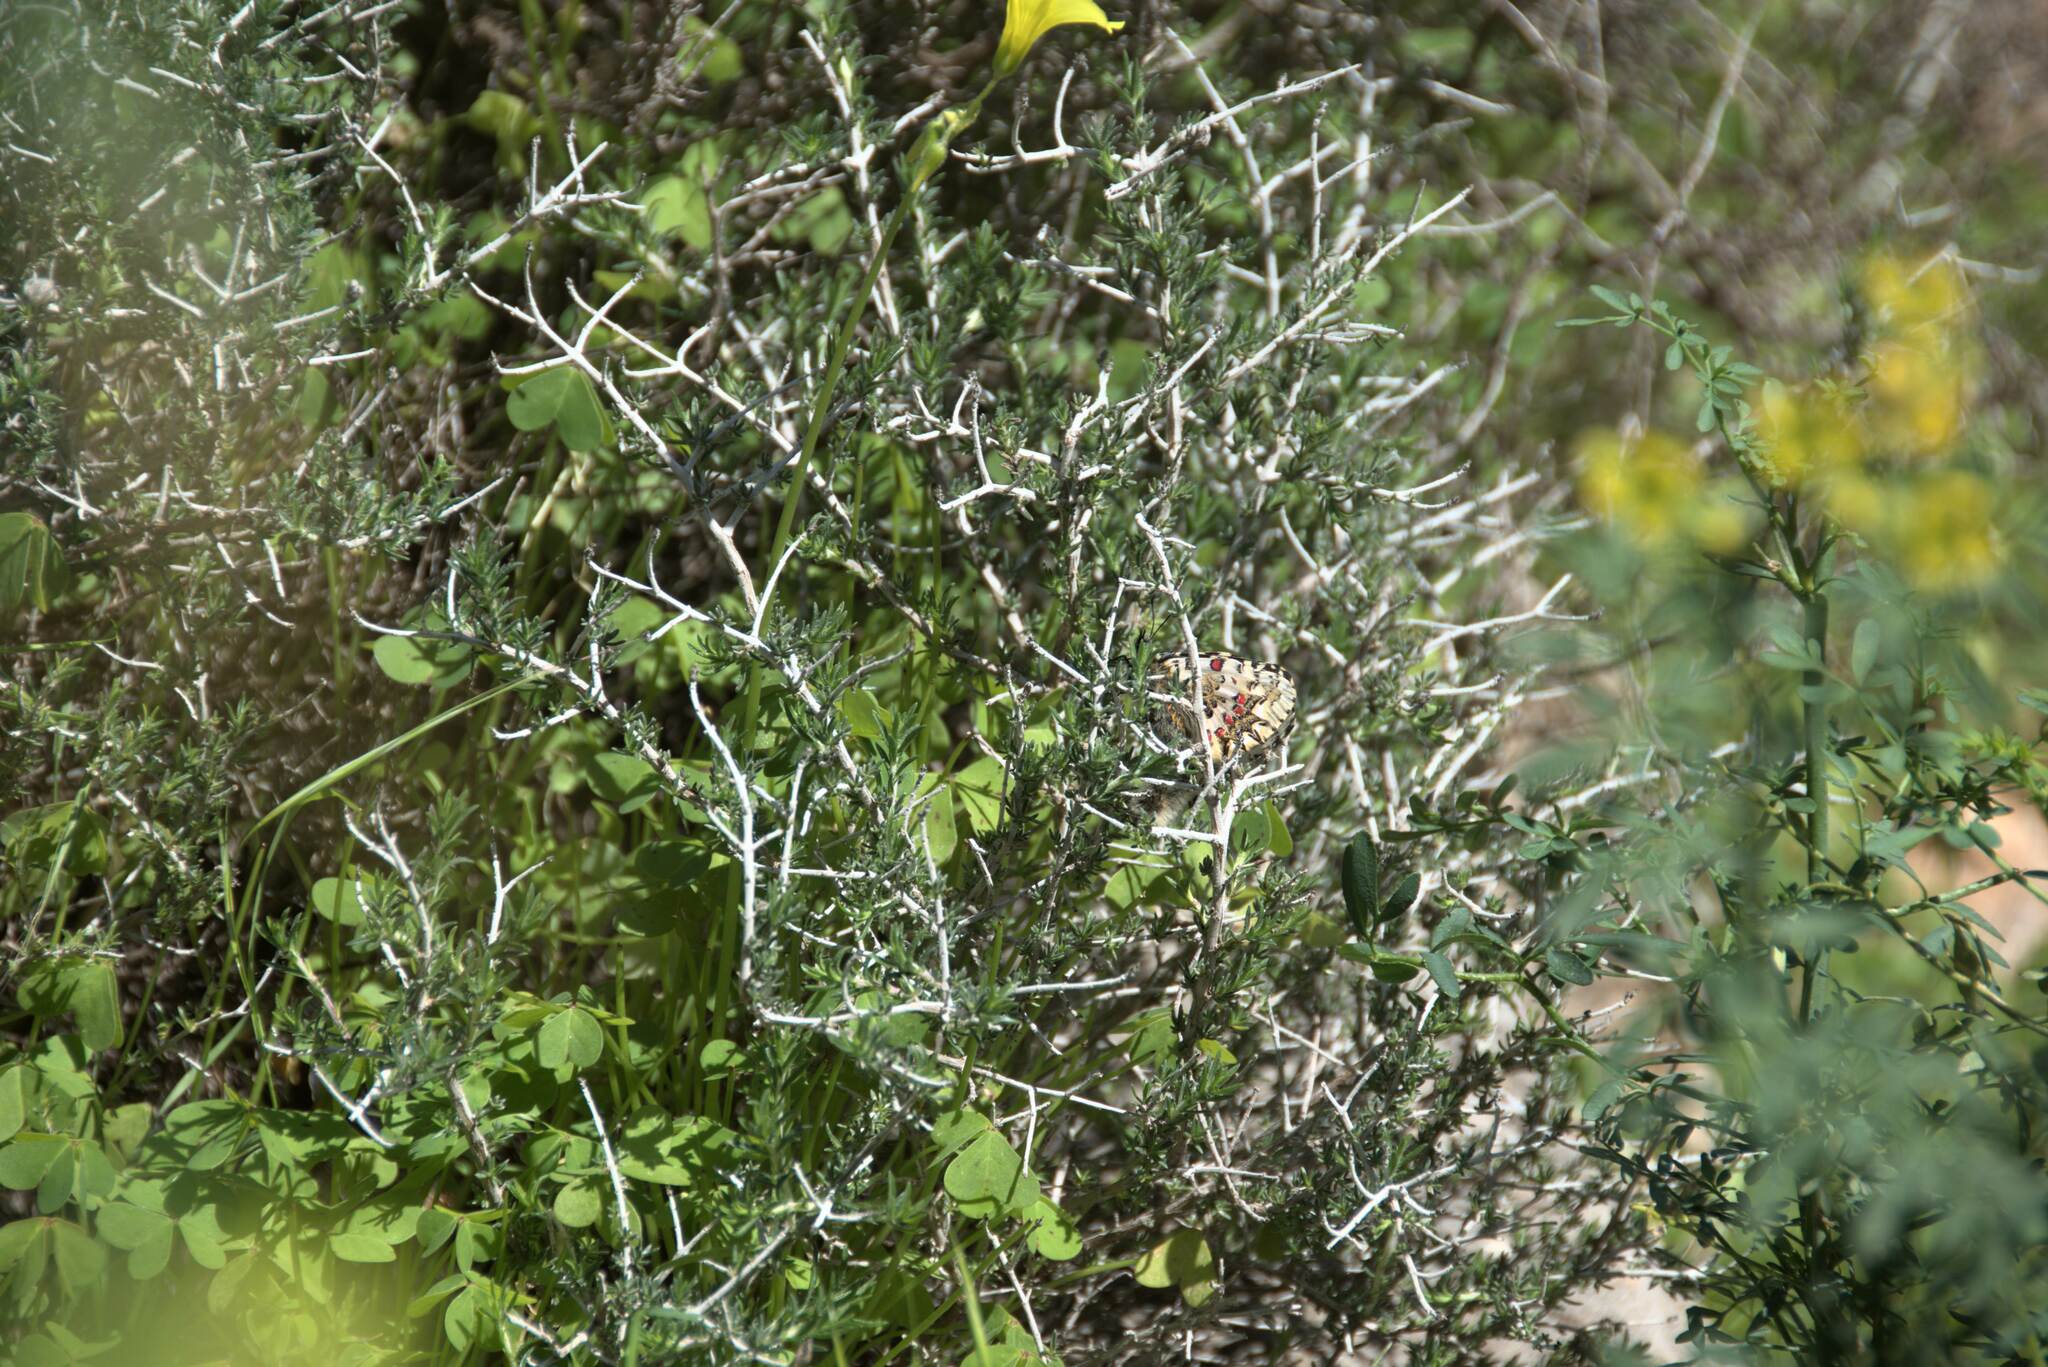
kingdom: Animalia
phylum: Arthropoda
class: Insecta
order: Lepidoptera
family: Papilionidae
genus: Zerynthia
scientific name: Zerynthia cretica
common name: Cretan festoon
